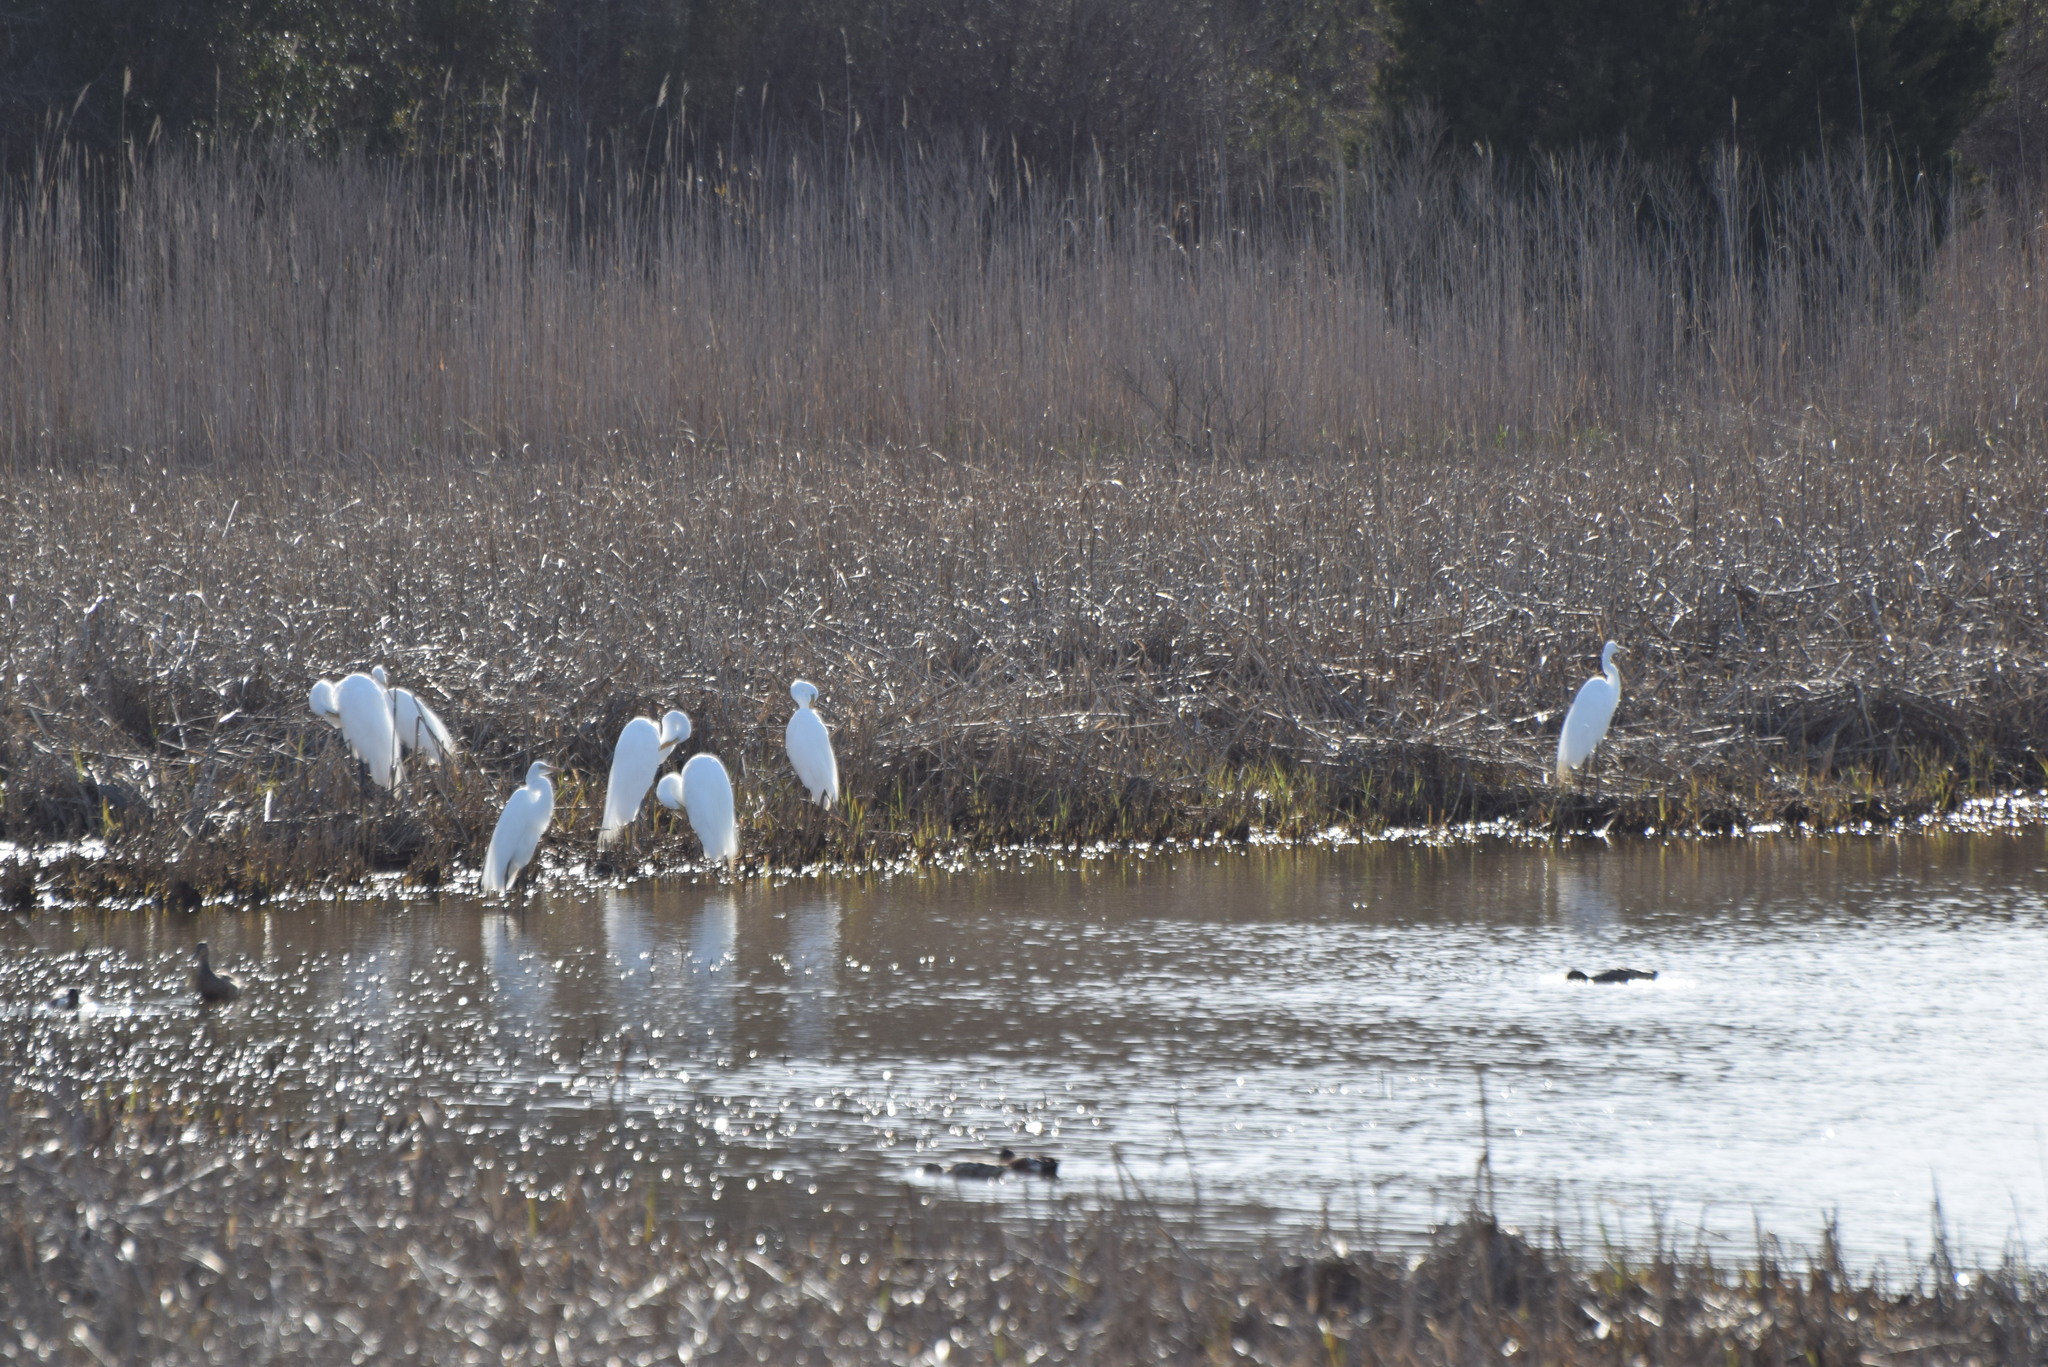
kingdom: Animalia
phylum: Chordata
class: Aves
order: Pelecaniformes
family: Ardeidae
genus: Ardea
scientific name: Ardea alba
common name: Great egret
